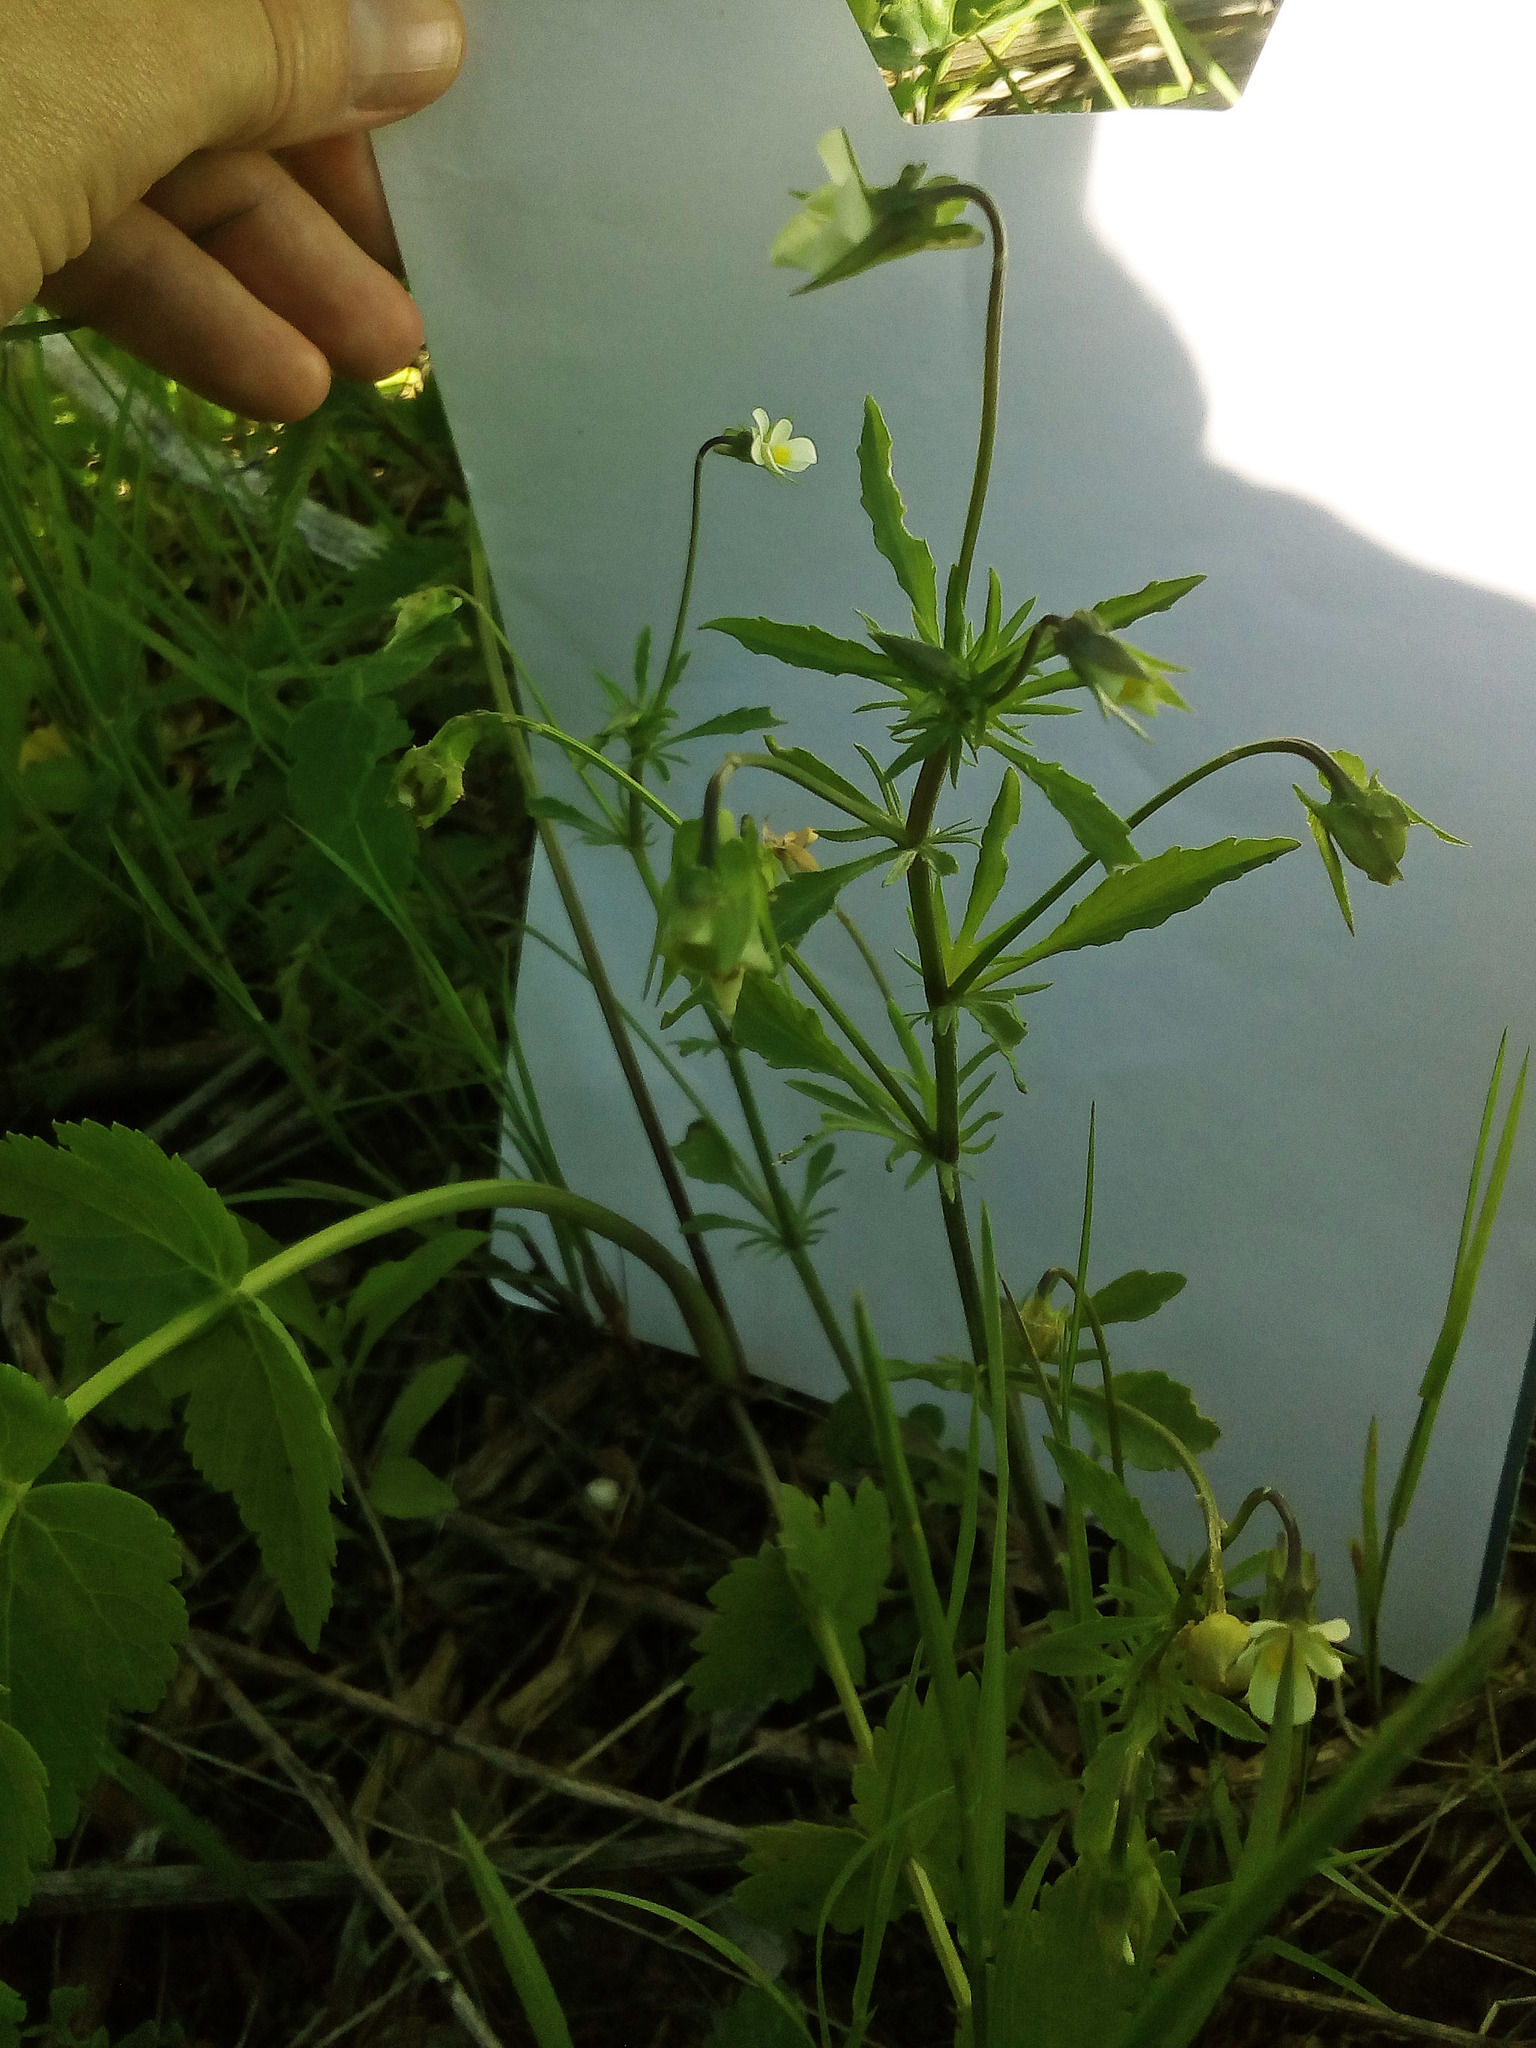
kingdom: Plantae
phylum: Tracheophyta
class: Magnoliopsida
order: Malpighiales
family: Violaceae
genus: Viola
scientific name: Viola arvensis
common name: Field pansy
